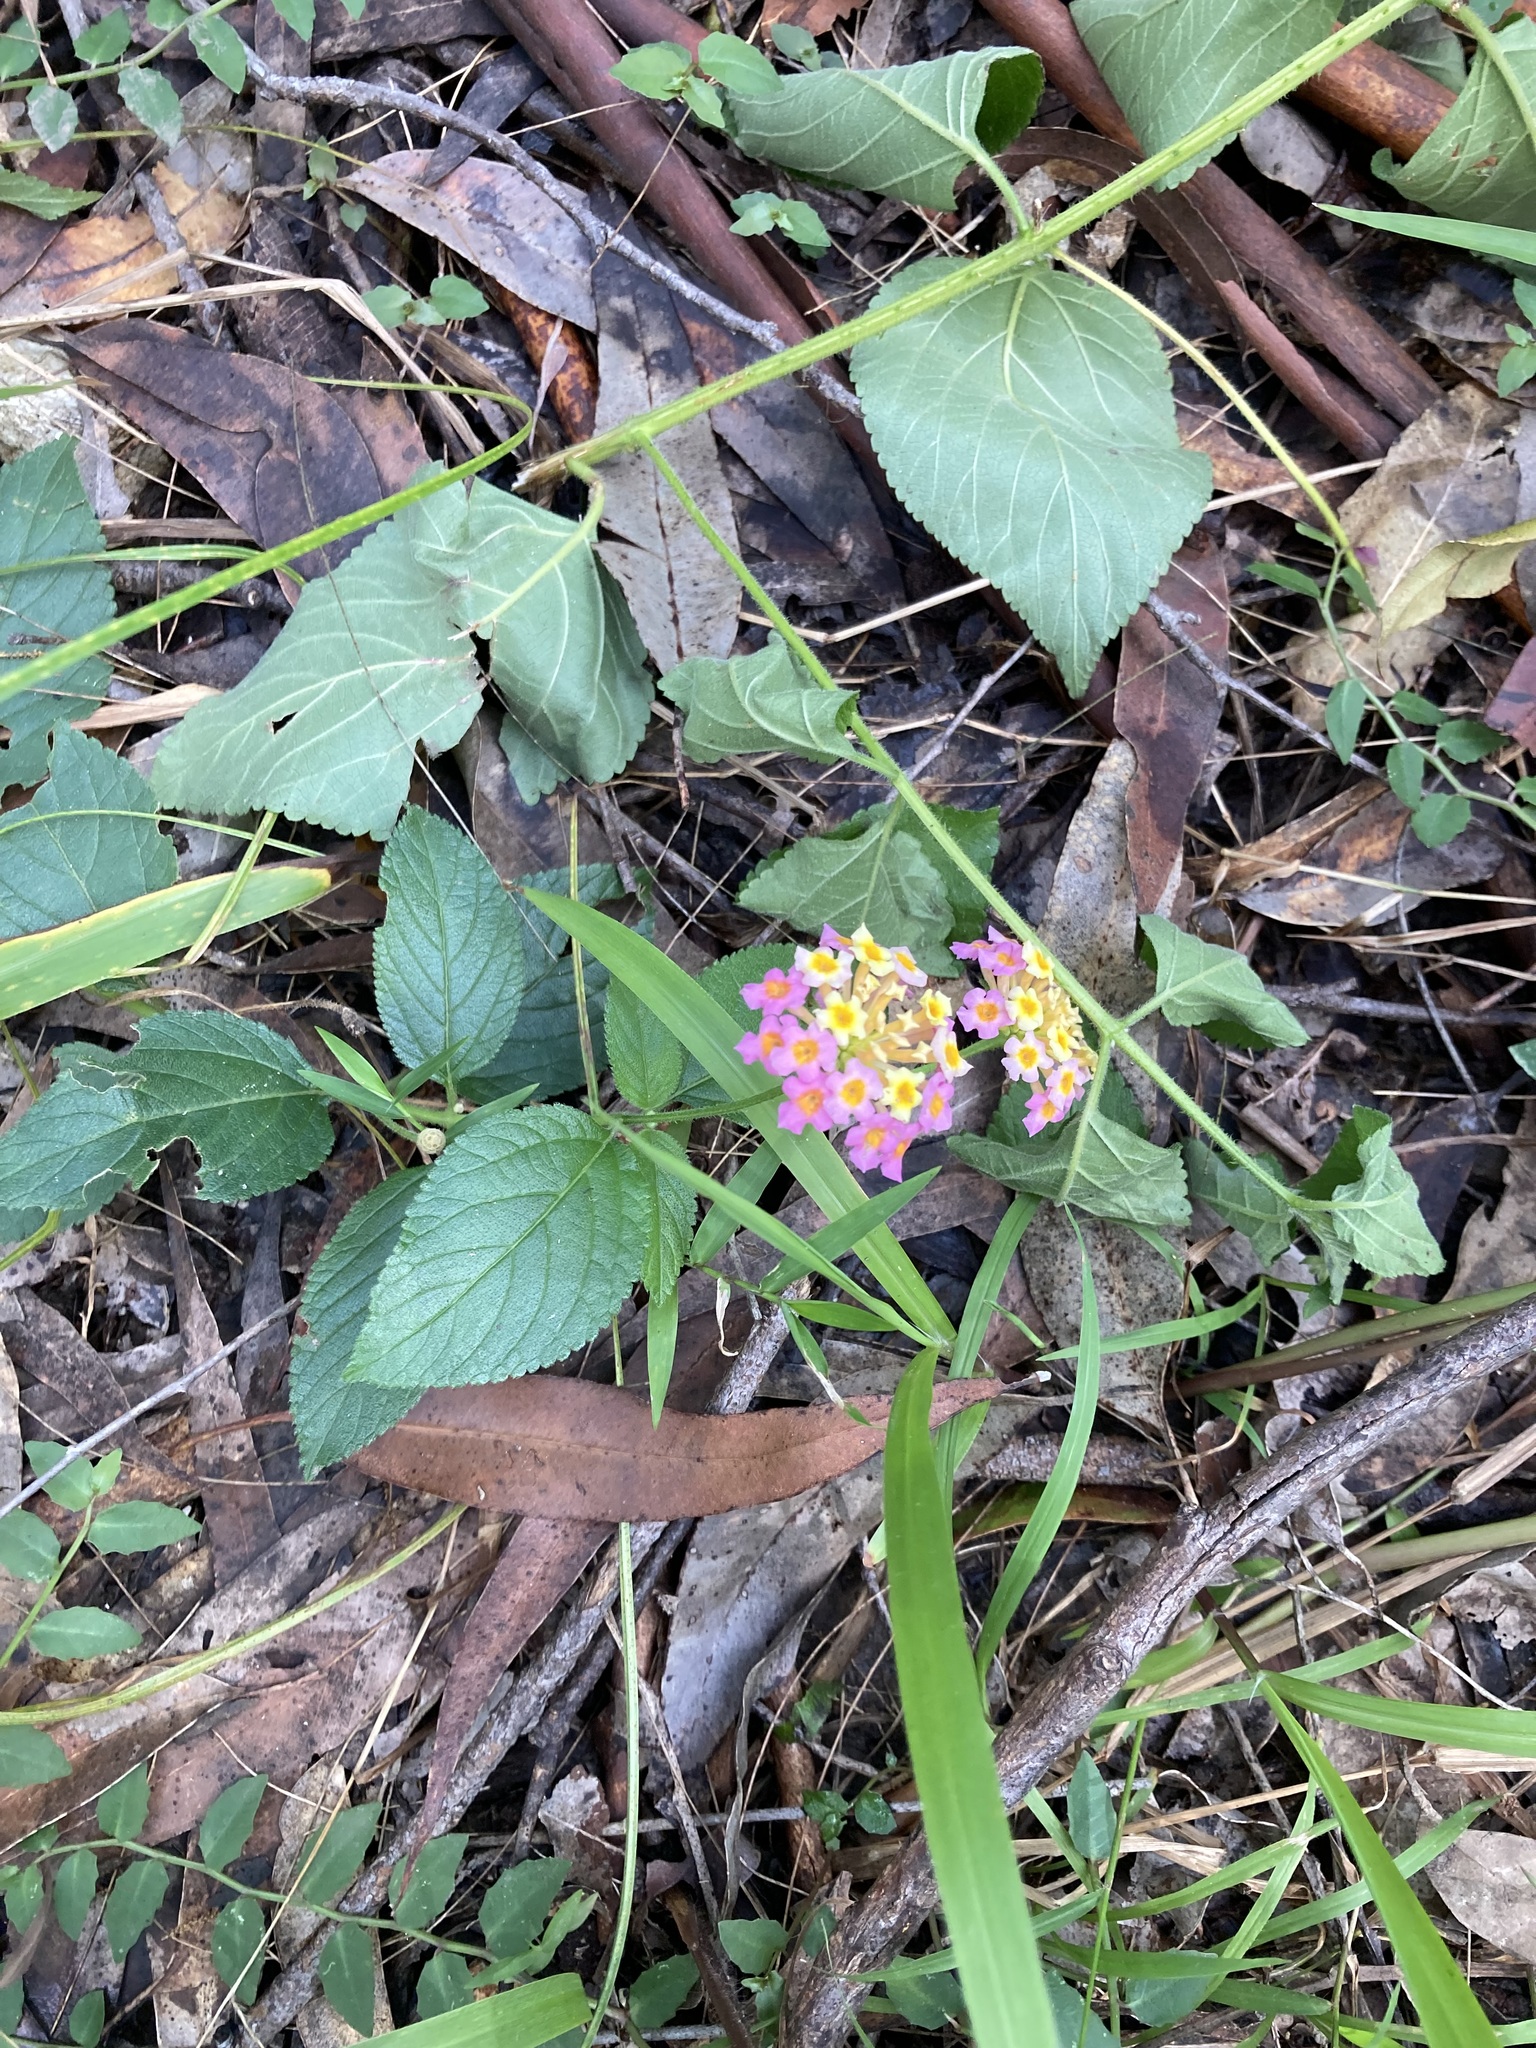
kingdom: Plantae
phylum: Tracheophyta
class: Magnoliopsida
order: Lamiales
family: Verbenaceae
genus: Lantana
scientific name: Lantana camara
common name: Lantana
